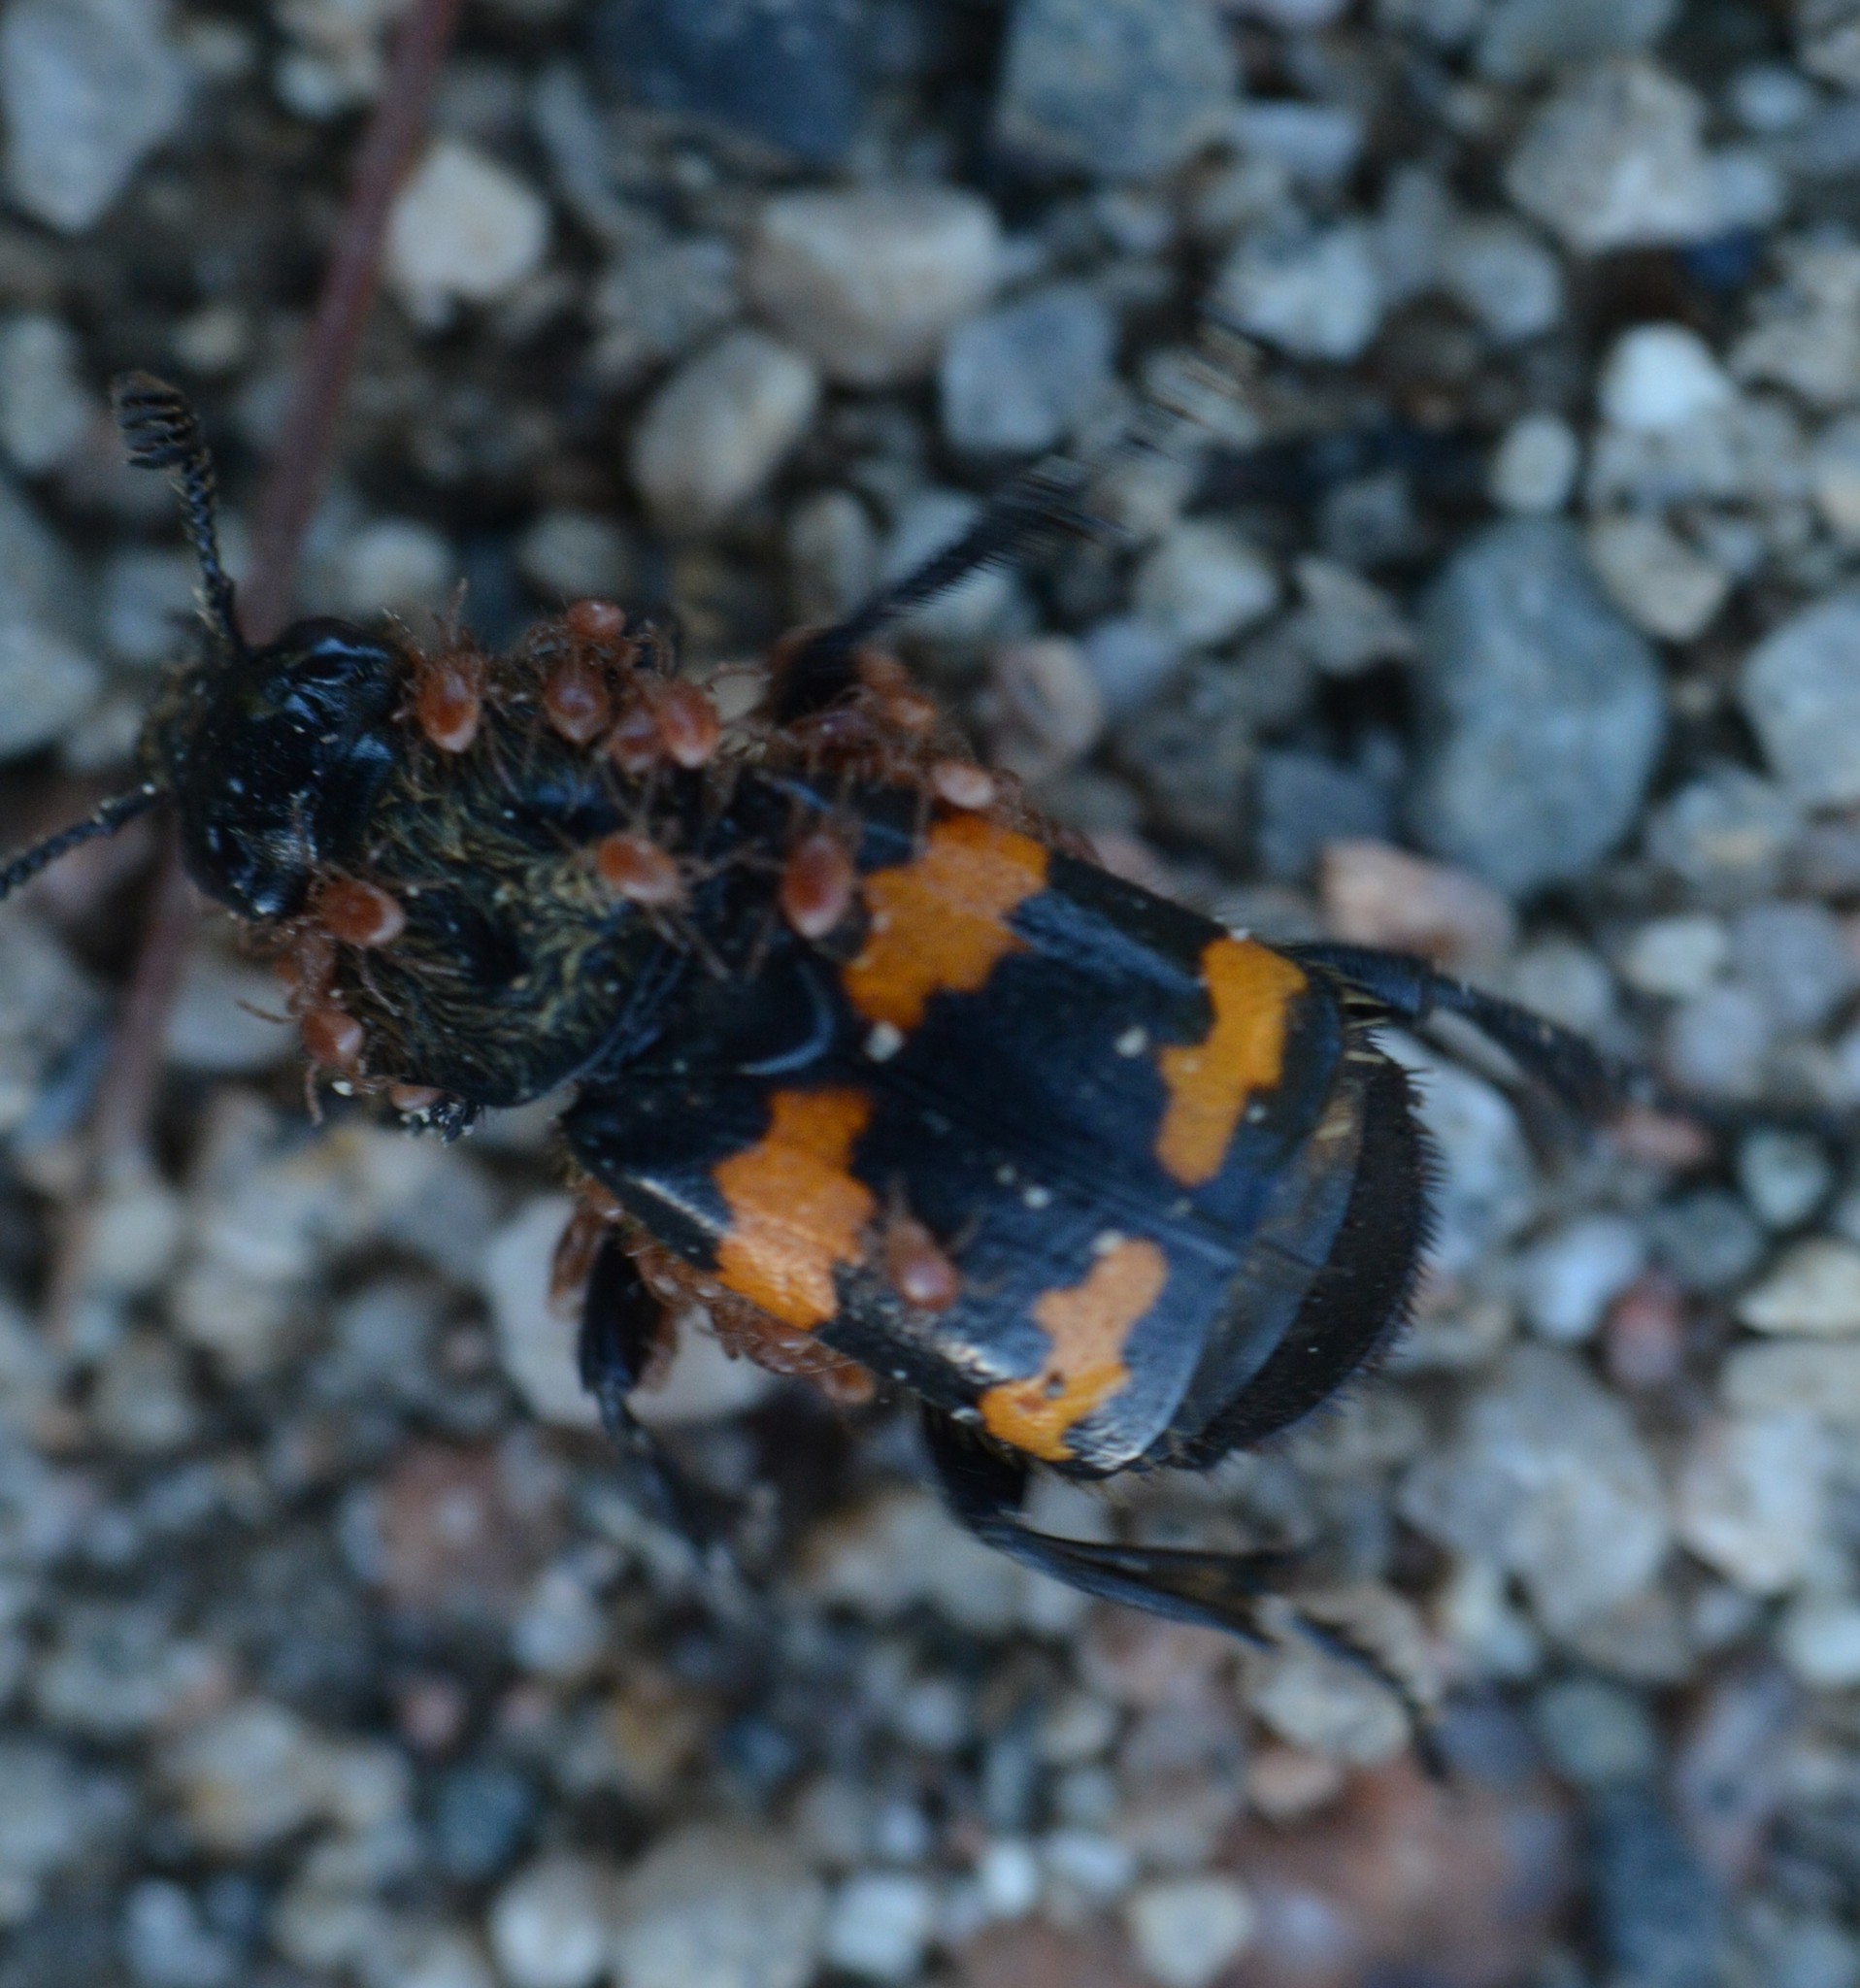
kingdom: Animalia
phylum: Arthropoda
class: Insecta
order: Coleoptera
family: Staphylinidae
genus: Nicrophorus
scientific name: Nicrophorus tomentosus
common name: Tomentose burying beetle
